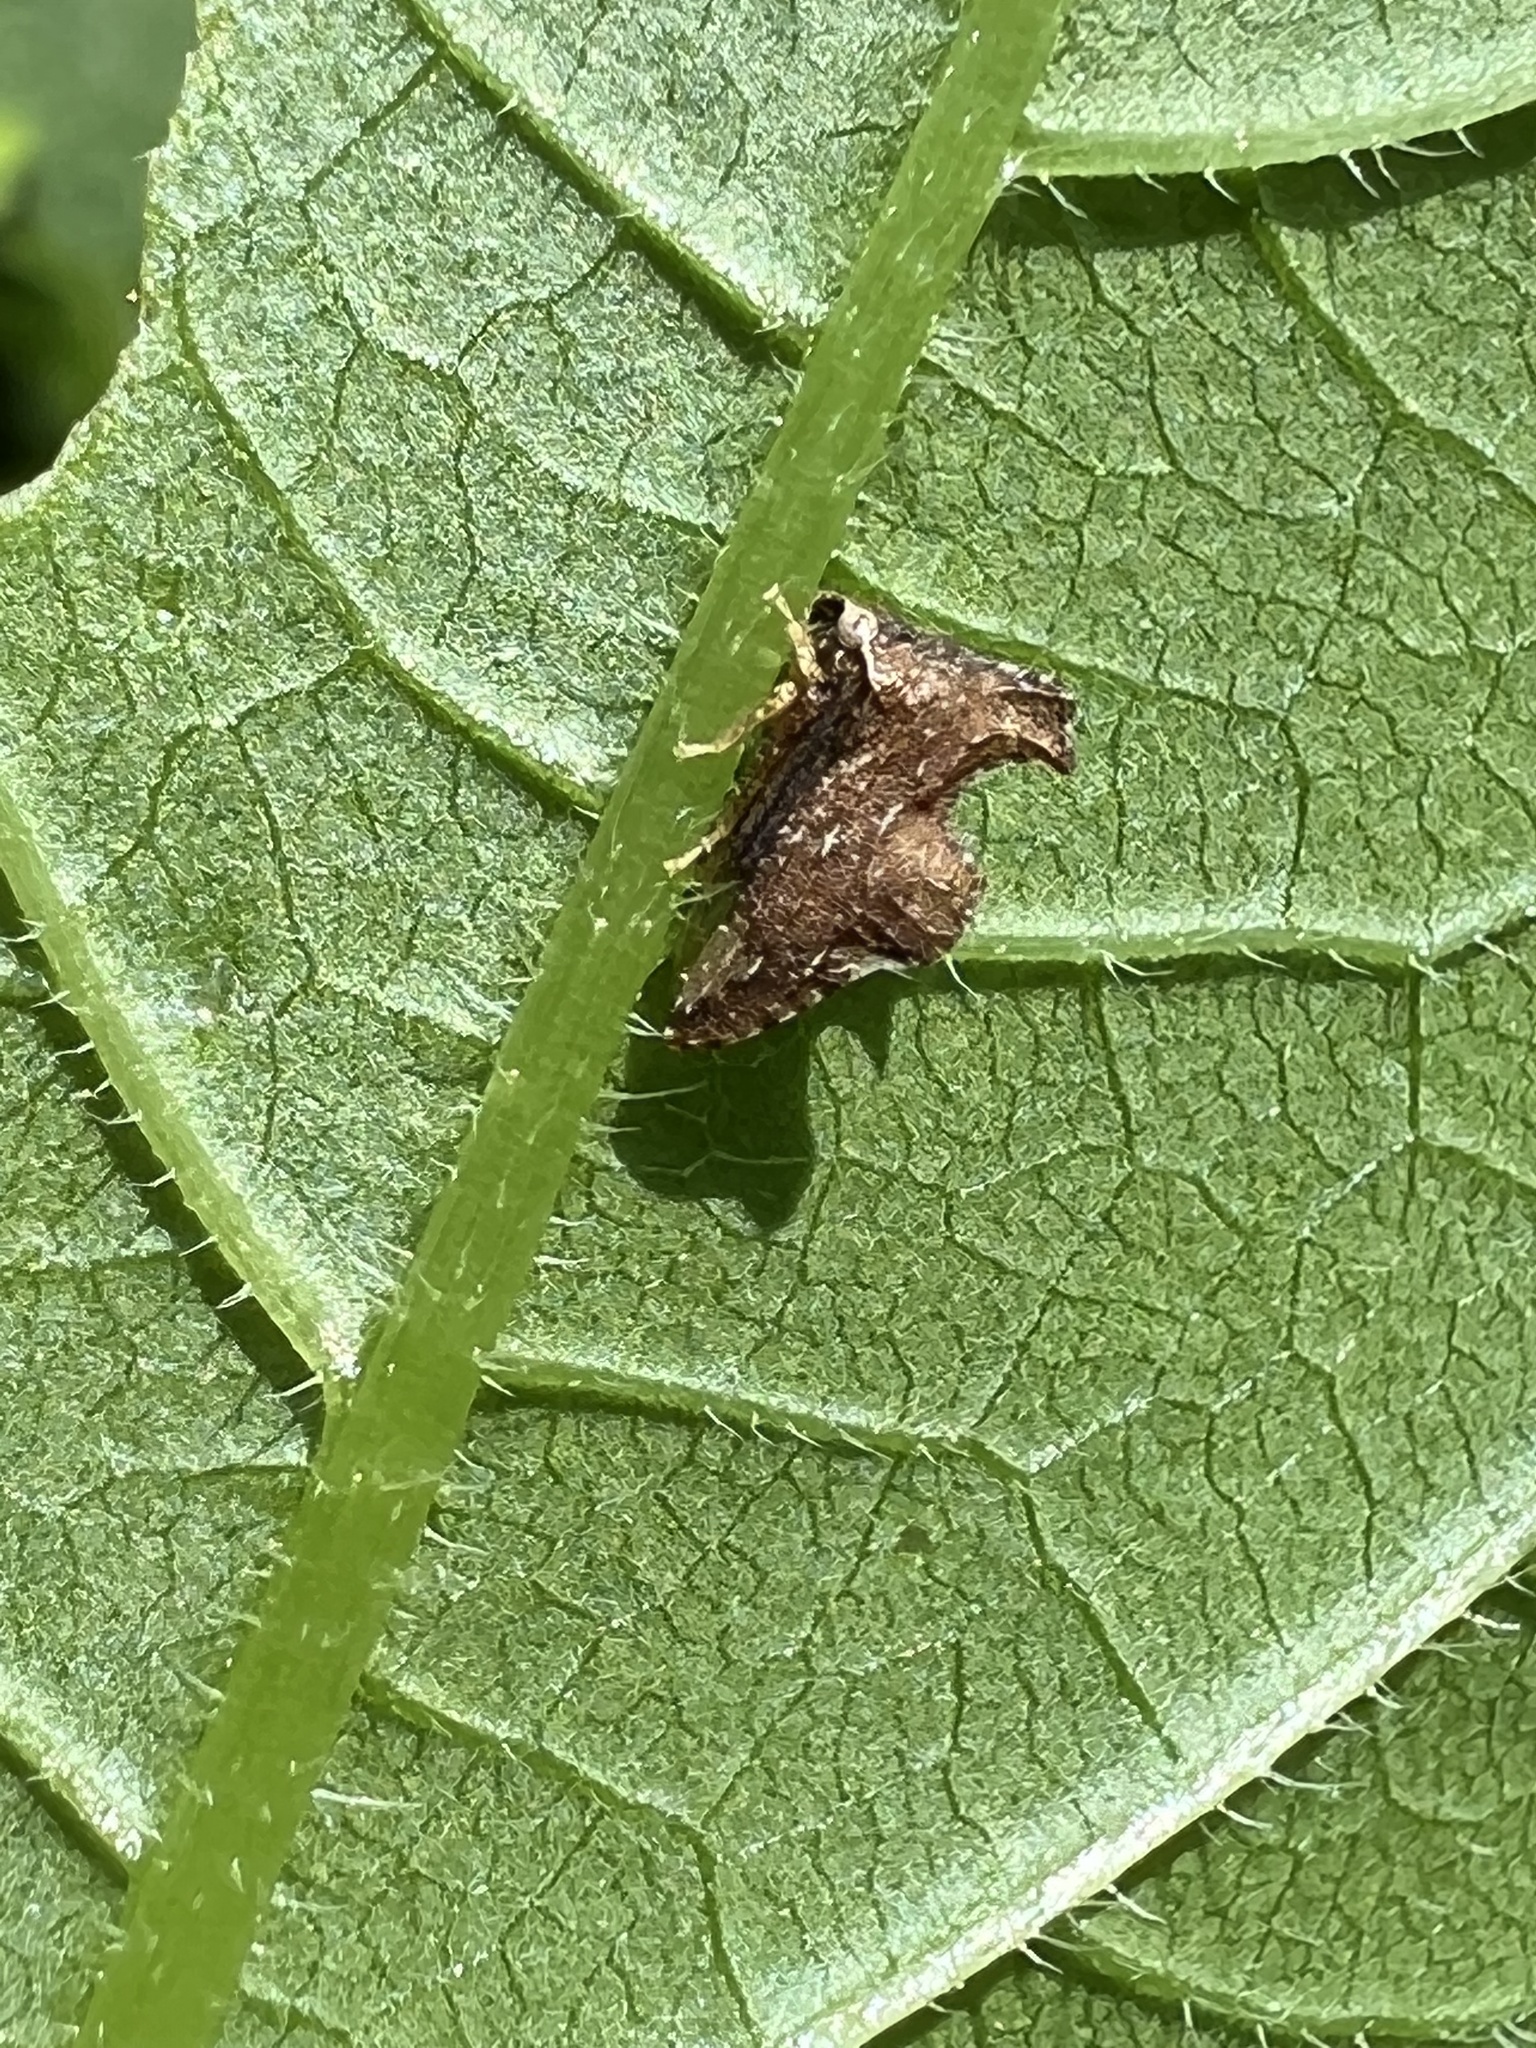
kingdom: Animalia
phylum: Arthropoda
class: Insecta
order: Hemiptera
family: Membracidae
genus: Entylia
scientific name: Entylia carinata
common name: Keeled treehopper
